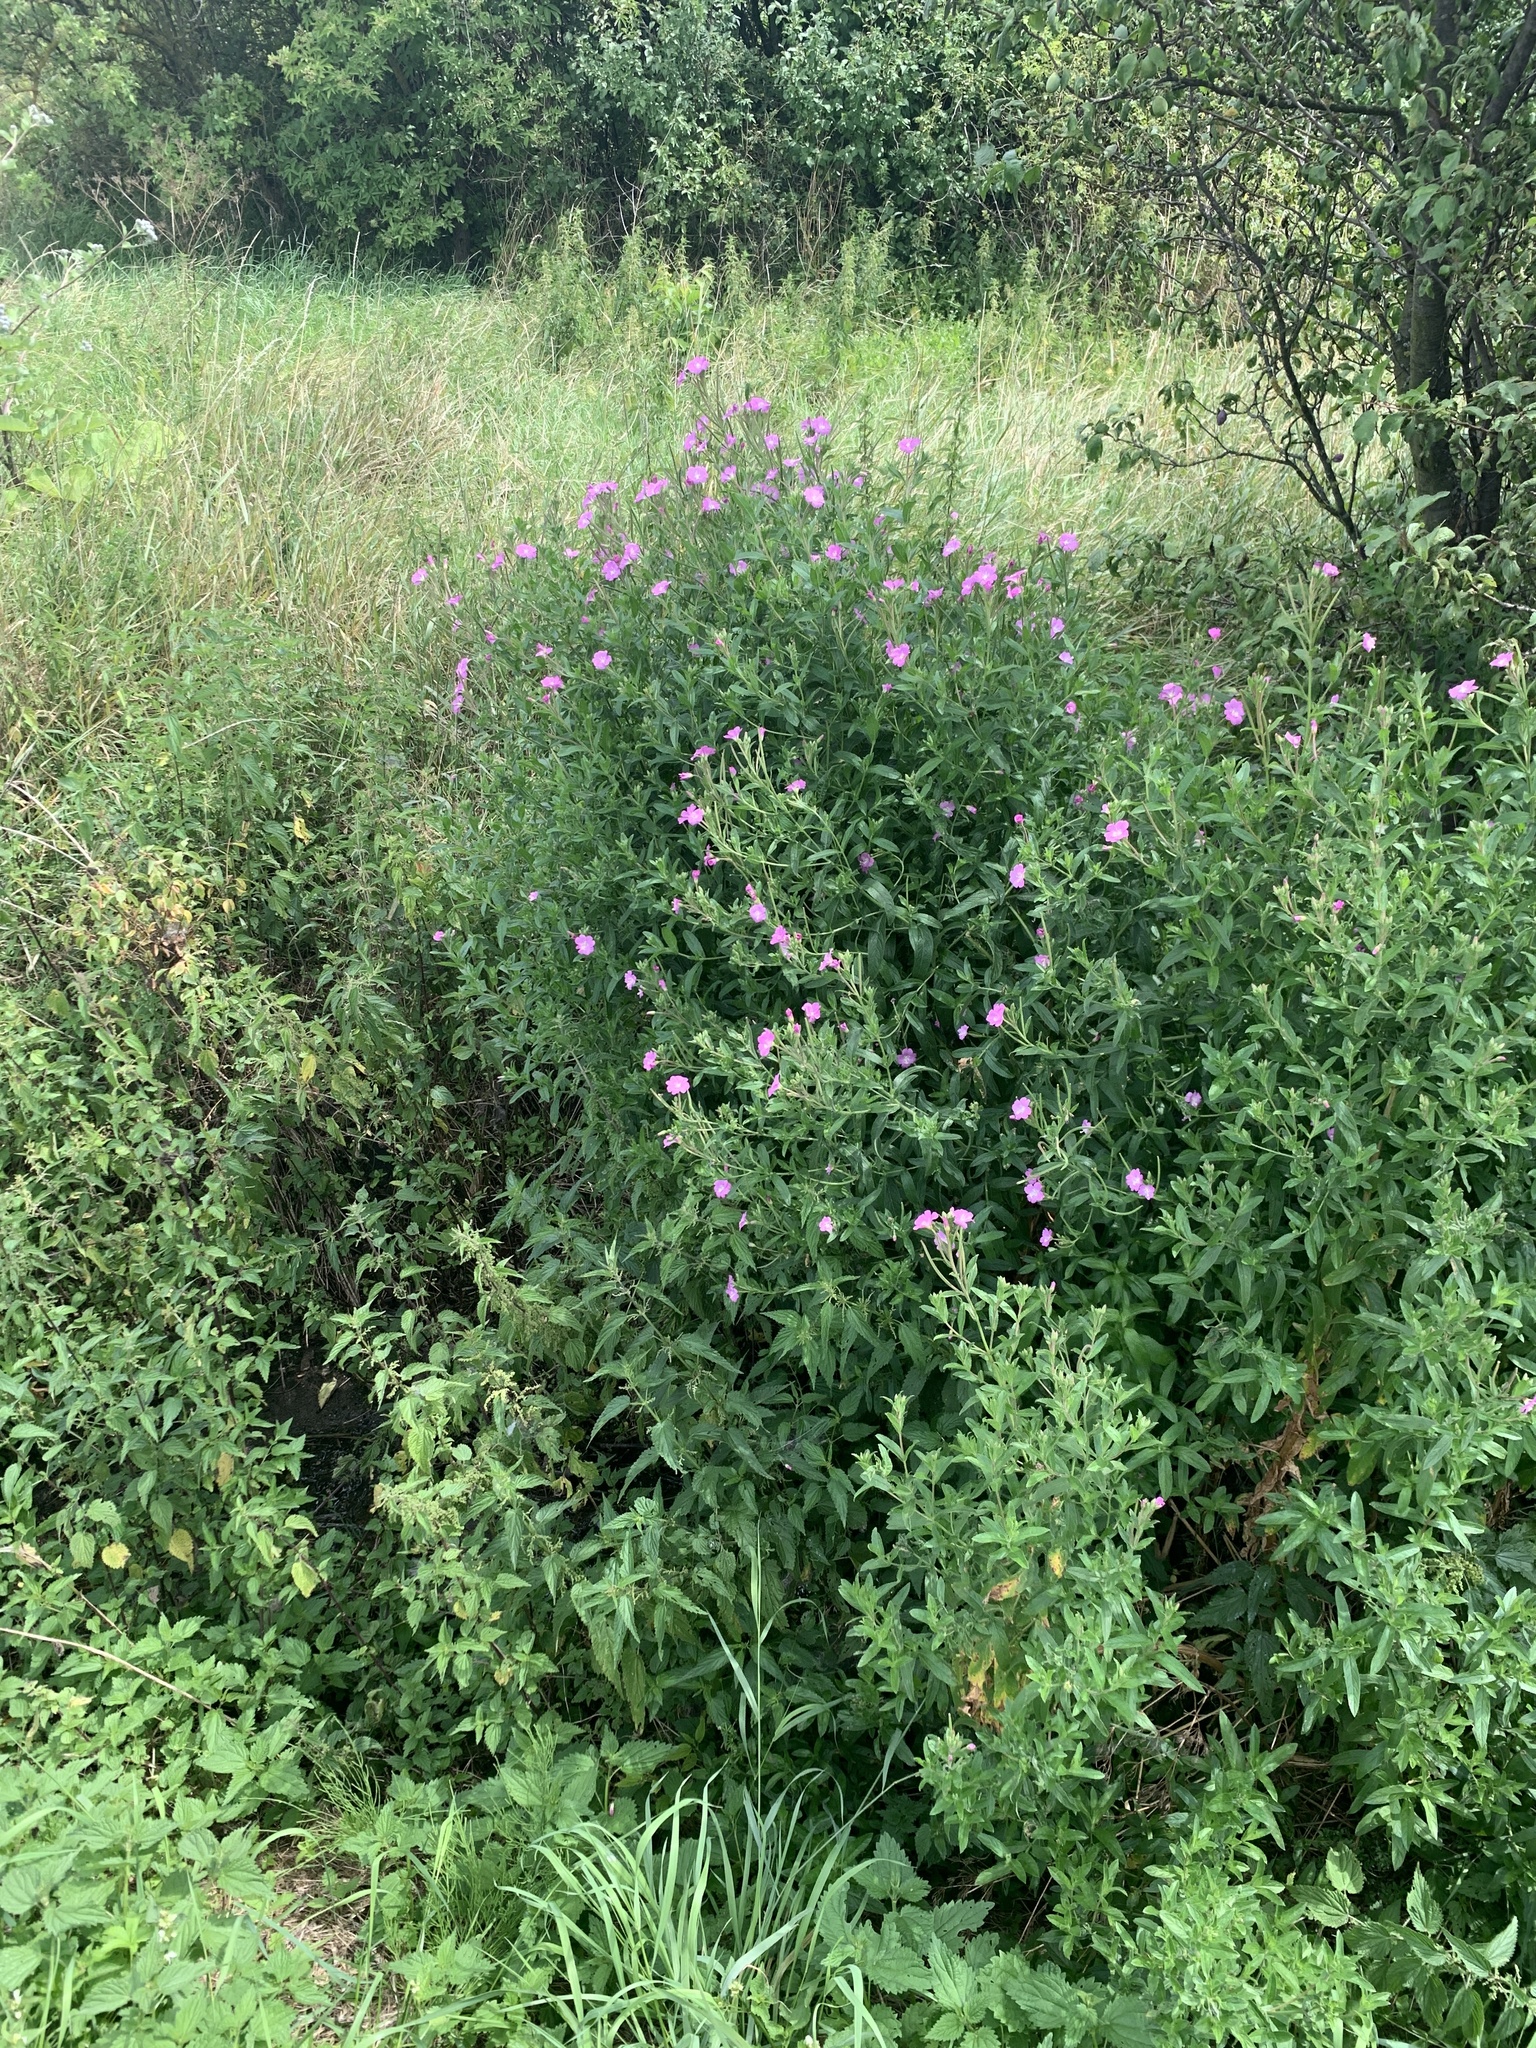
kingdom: Plantae
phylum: Tracheophyta
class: Magnoliopsida
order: Myrtales
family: Onagraceae
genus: Epilobium
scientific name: Epilobium hirsutum
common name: Great willowherb
